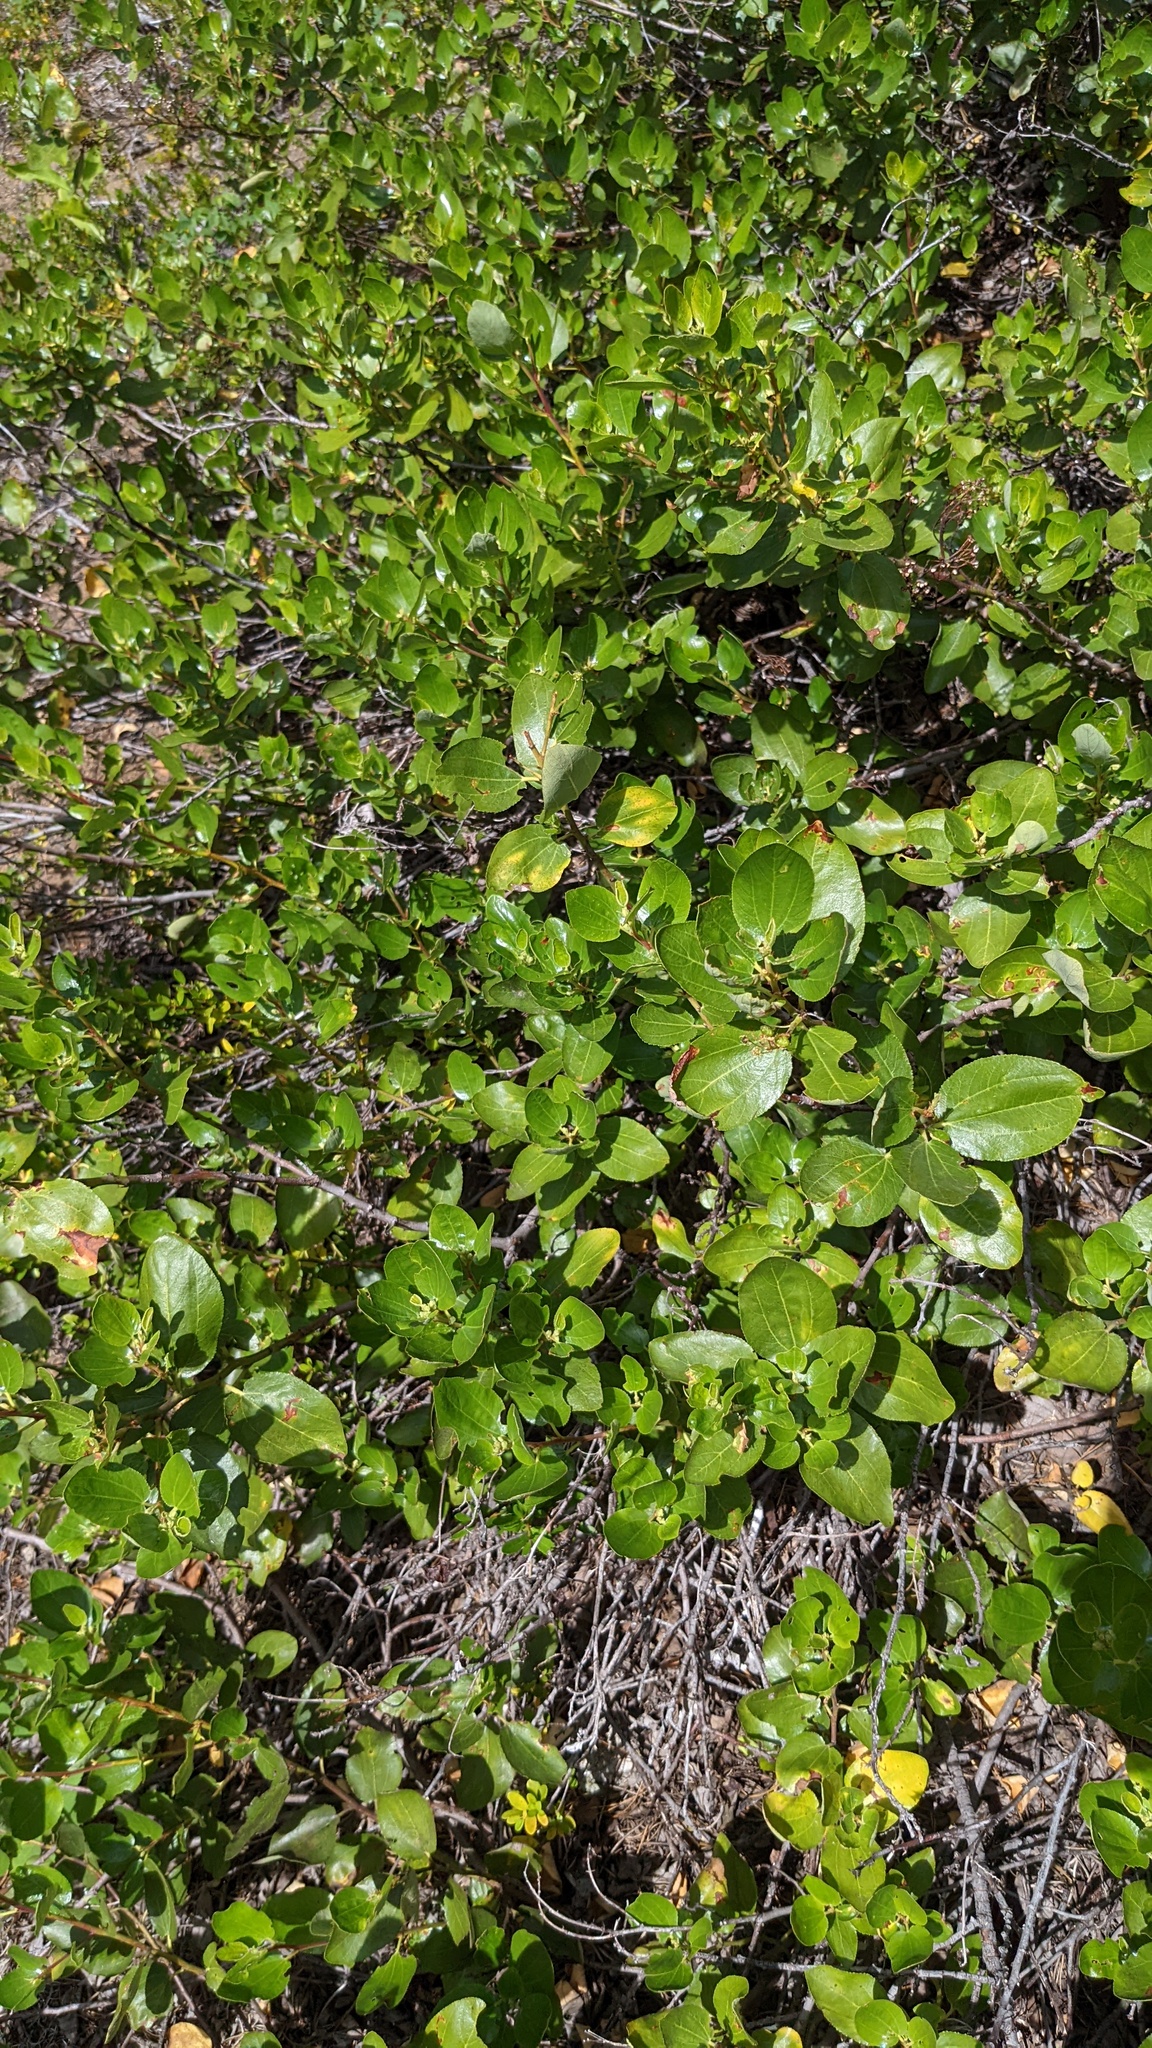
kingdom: Plantae
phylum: Tracheophyta
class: Magnoliopsida
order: Rosales
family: Rhamnaceae
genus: Ceanothus
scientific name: Ceanothus velutinus
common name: Snowbrush
